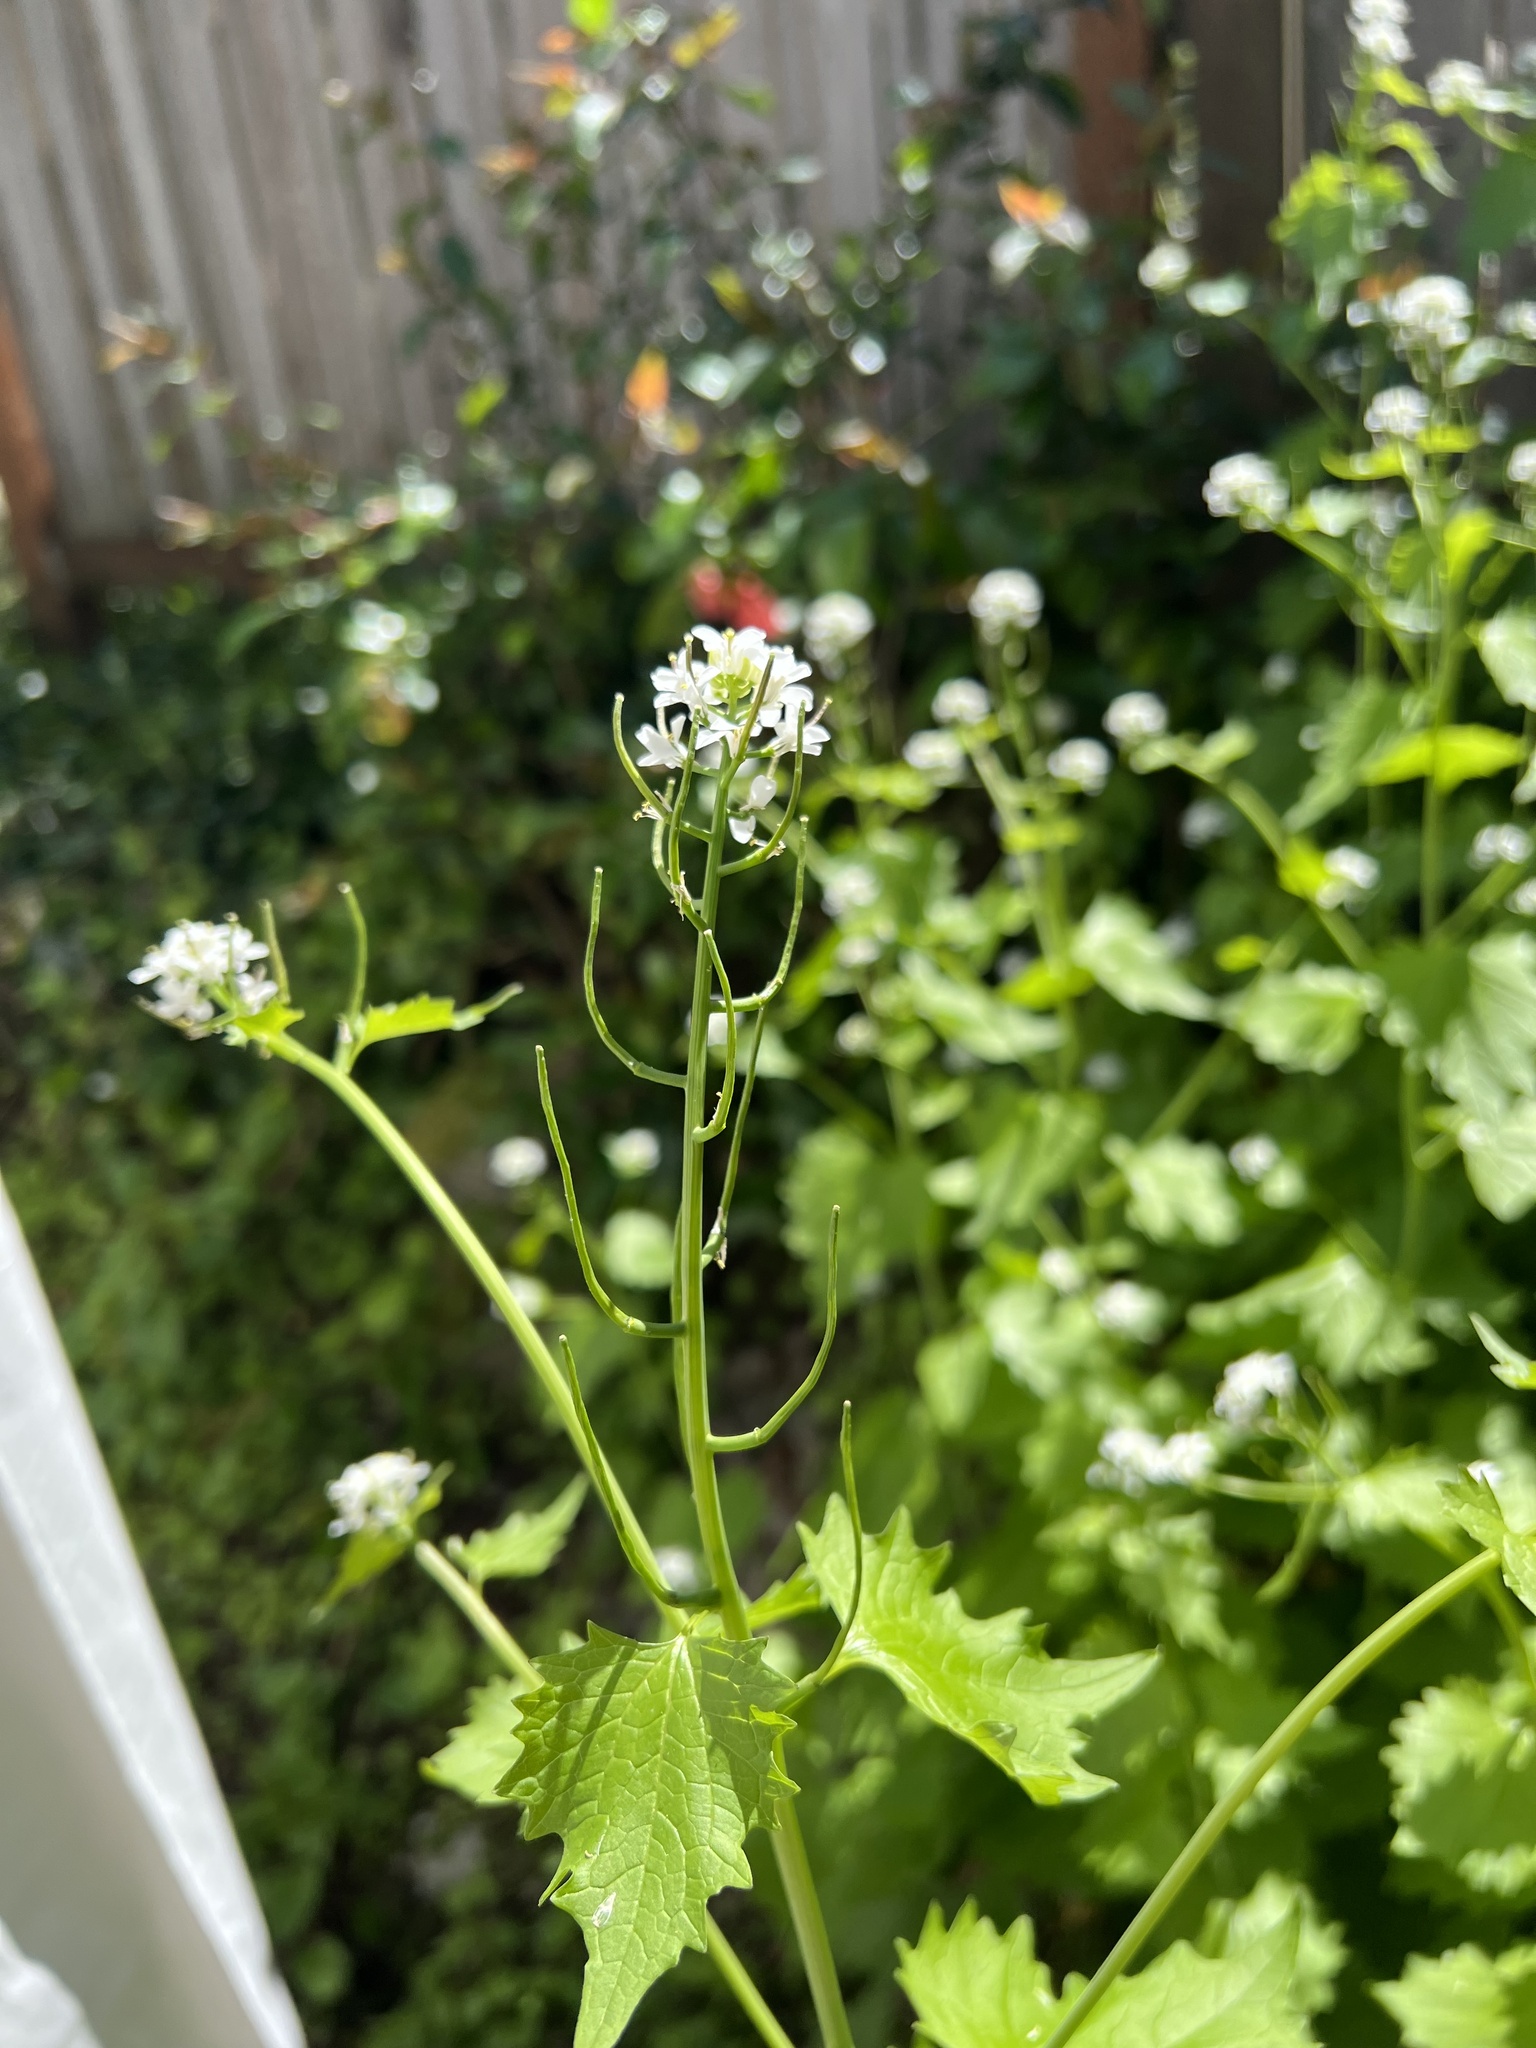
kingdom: Plantae
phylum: Tracheophyta
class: Magnoliopsida
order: Brassicales
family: Brassicaceae
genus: Alliaria
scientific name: Alliaria petiolata
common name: Garlic mustard
